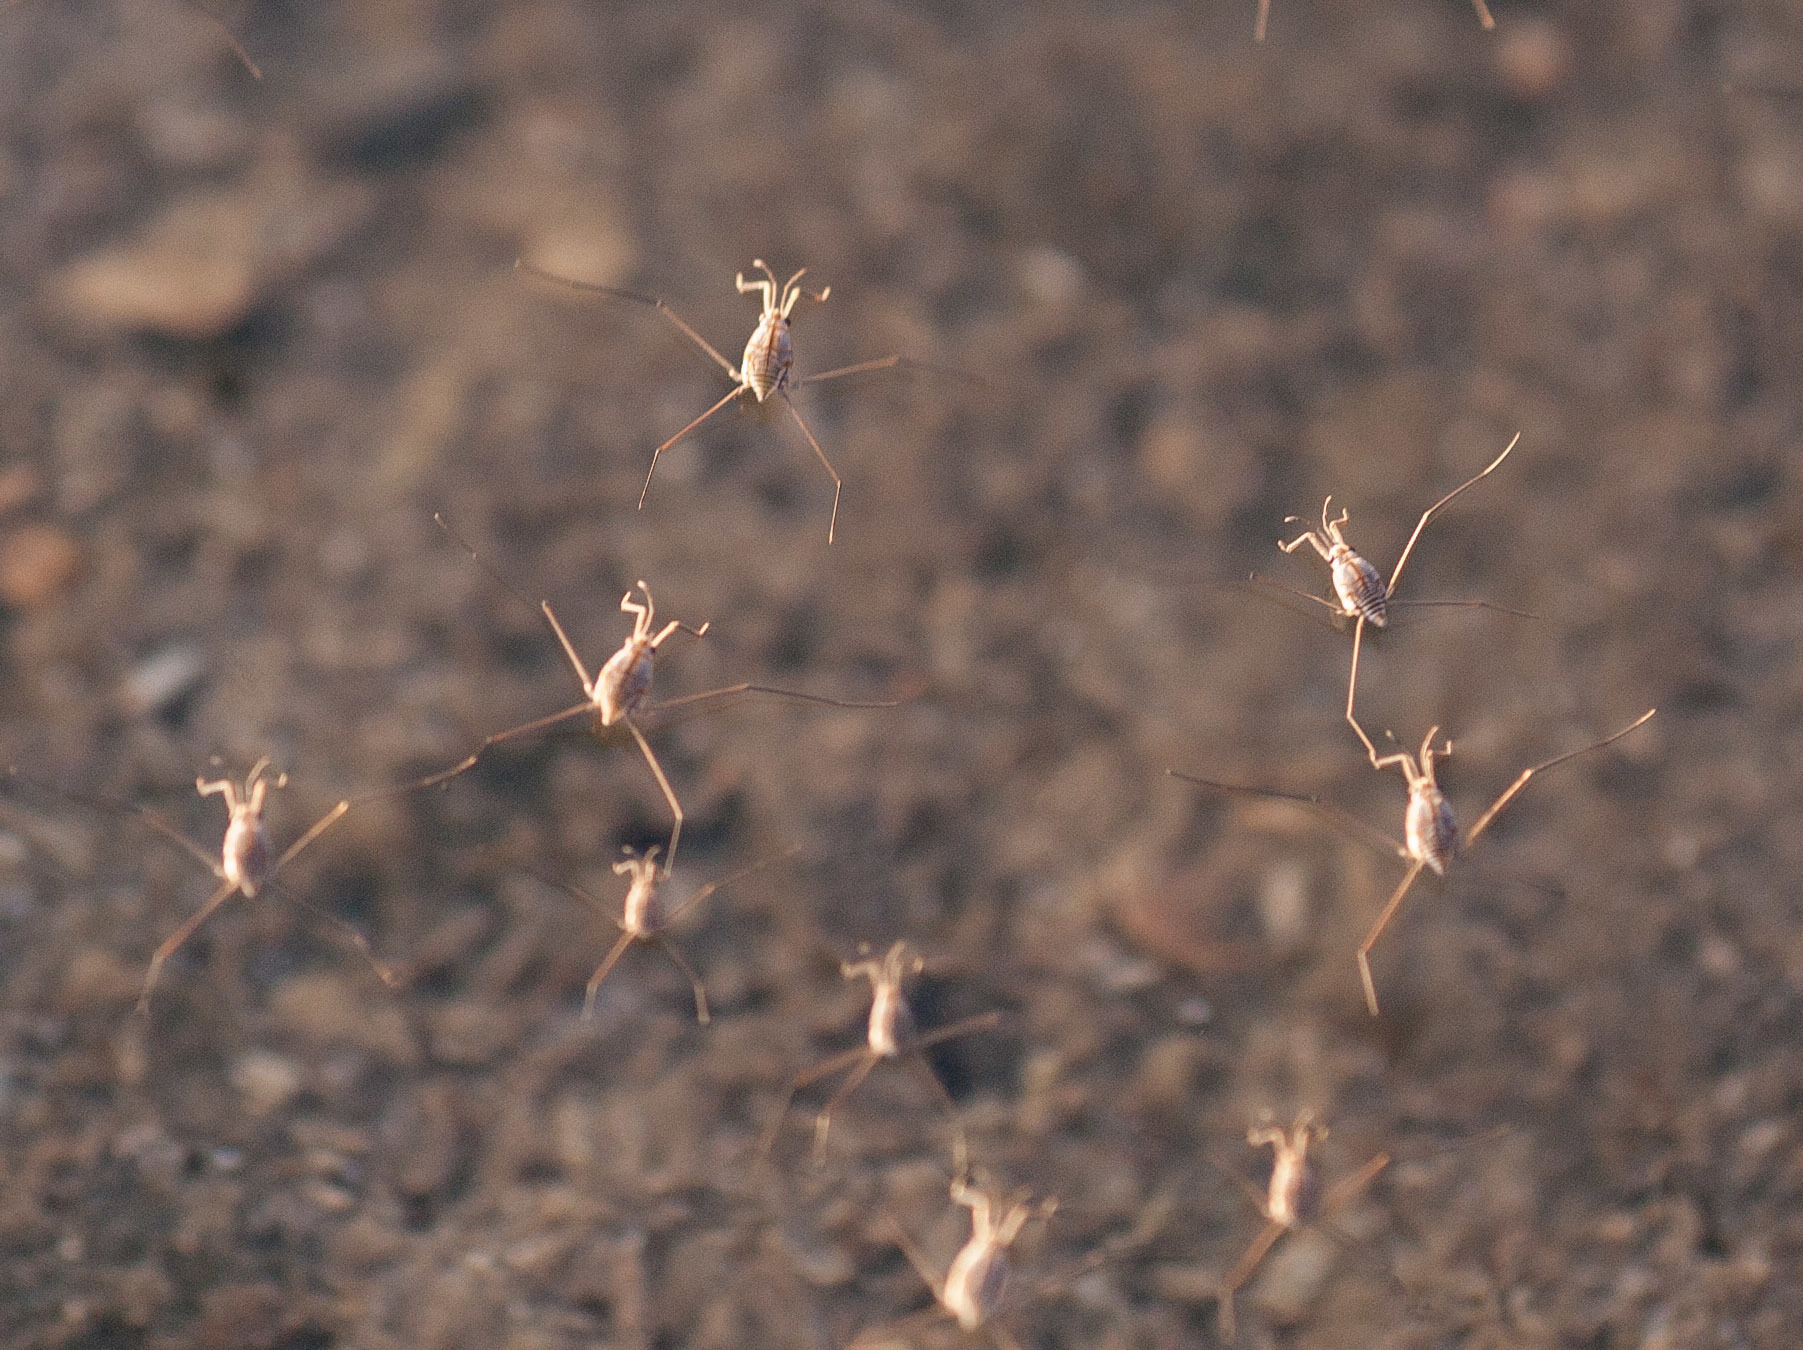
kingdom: Animalia
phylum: Arthropoda
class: Insecta
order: Hemiptera
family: Gerridae
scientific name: Gerridae
